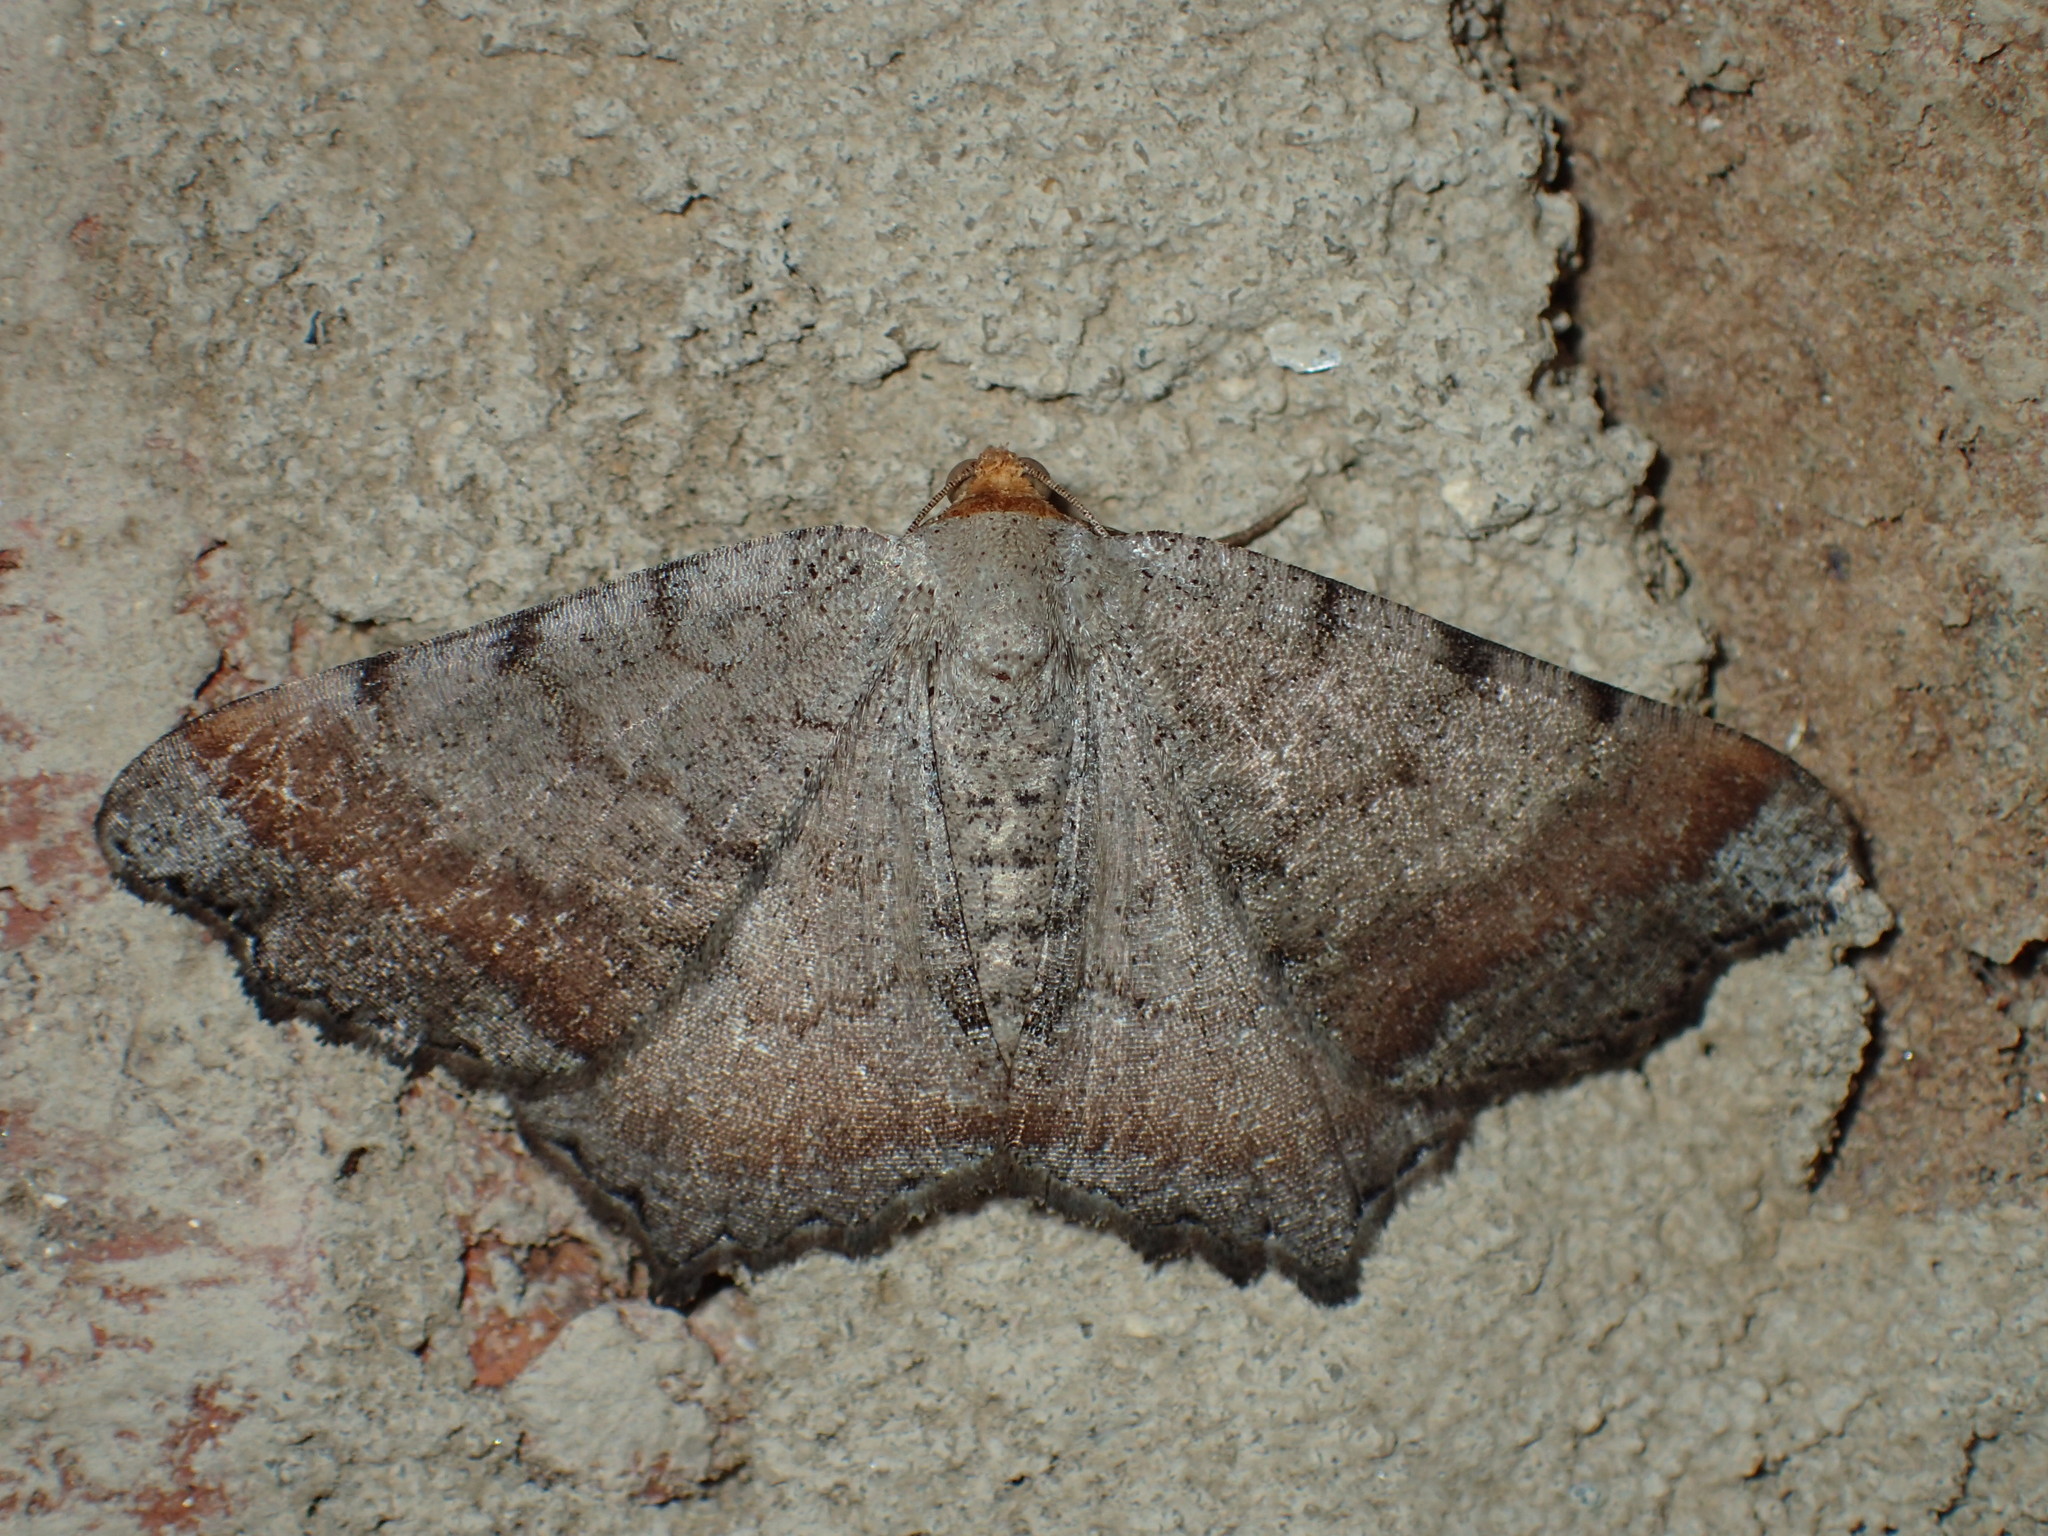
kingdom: Animalia
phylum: Arthropoda
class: Insecta
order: Lepidoptera
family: Geometridae
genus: Macaria
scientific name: Macaria distribuaria
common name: Southern chocolate angle
